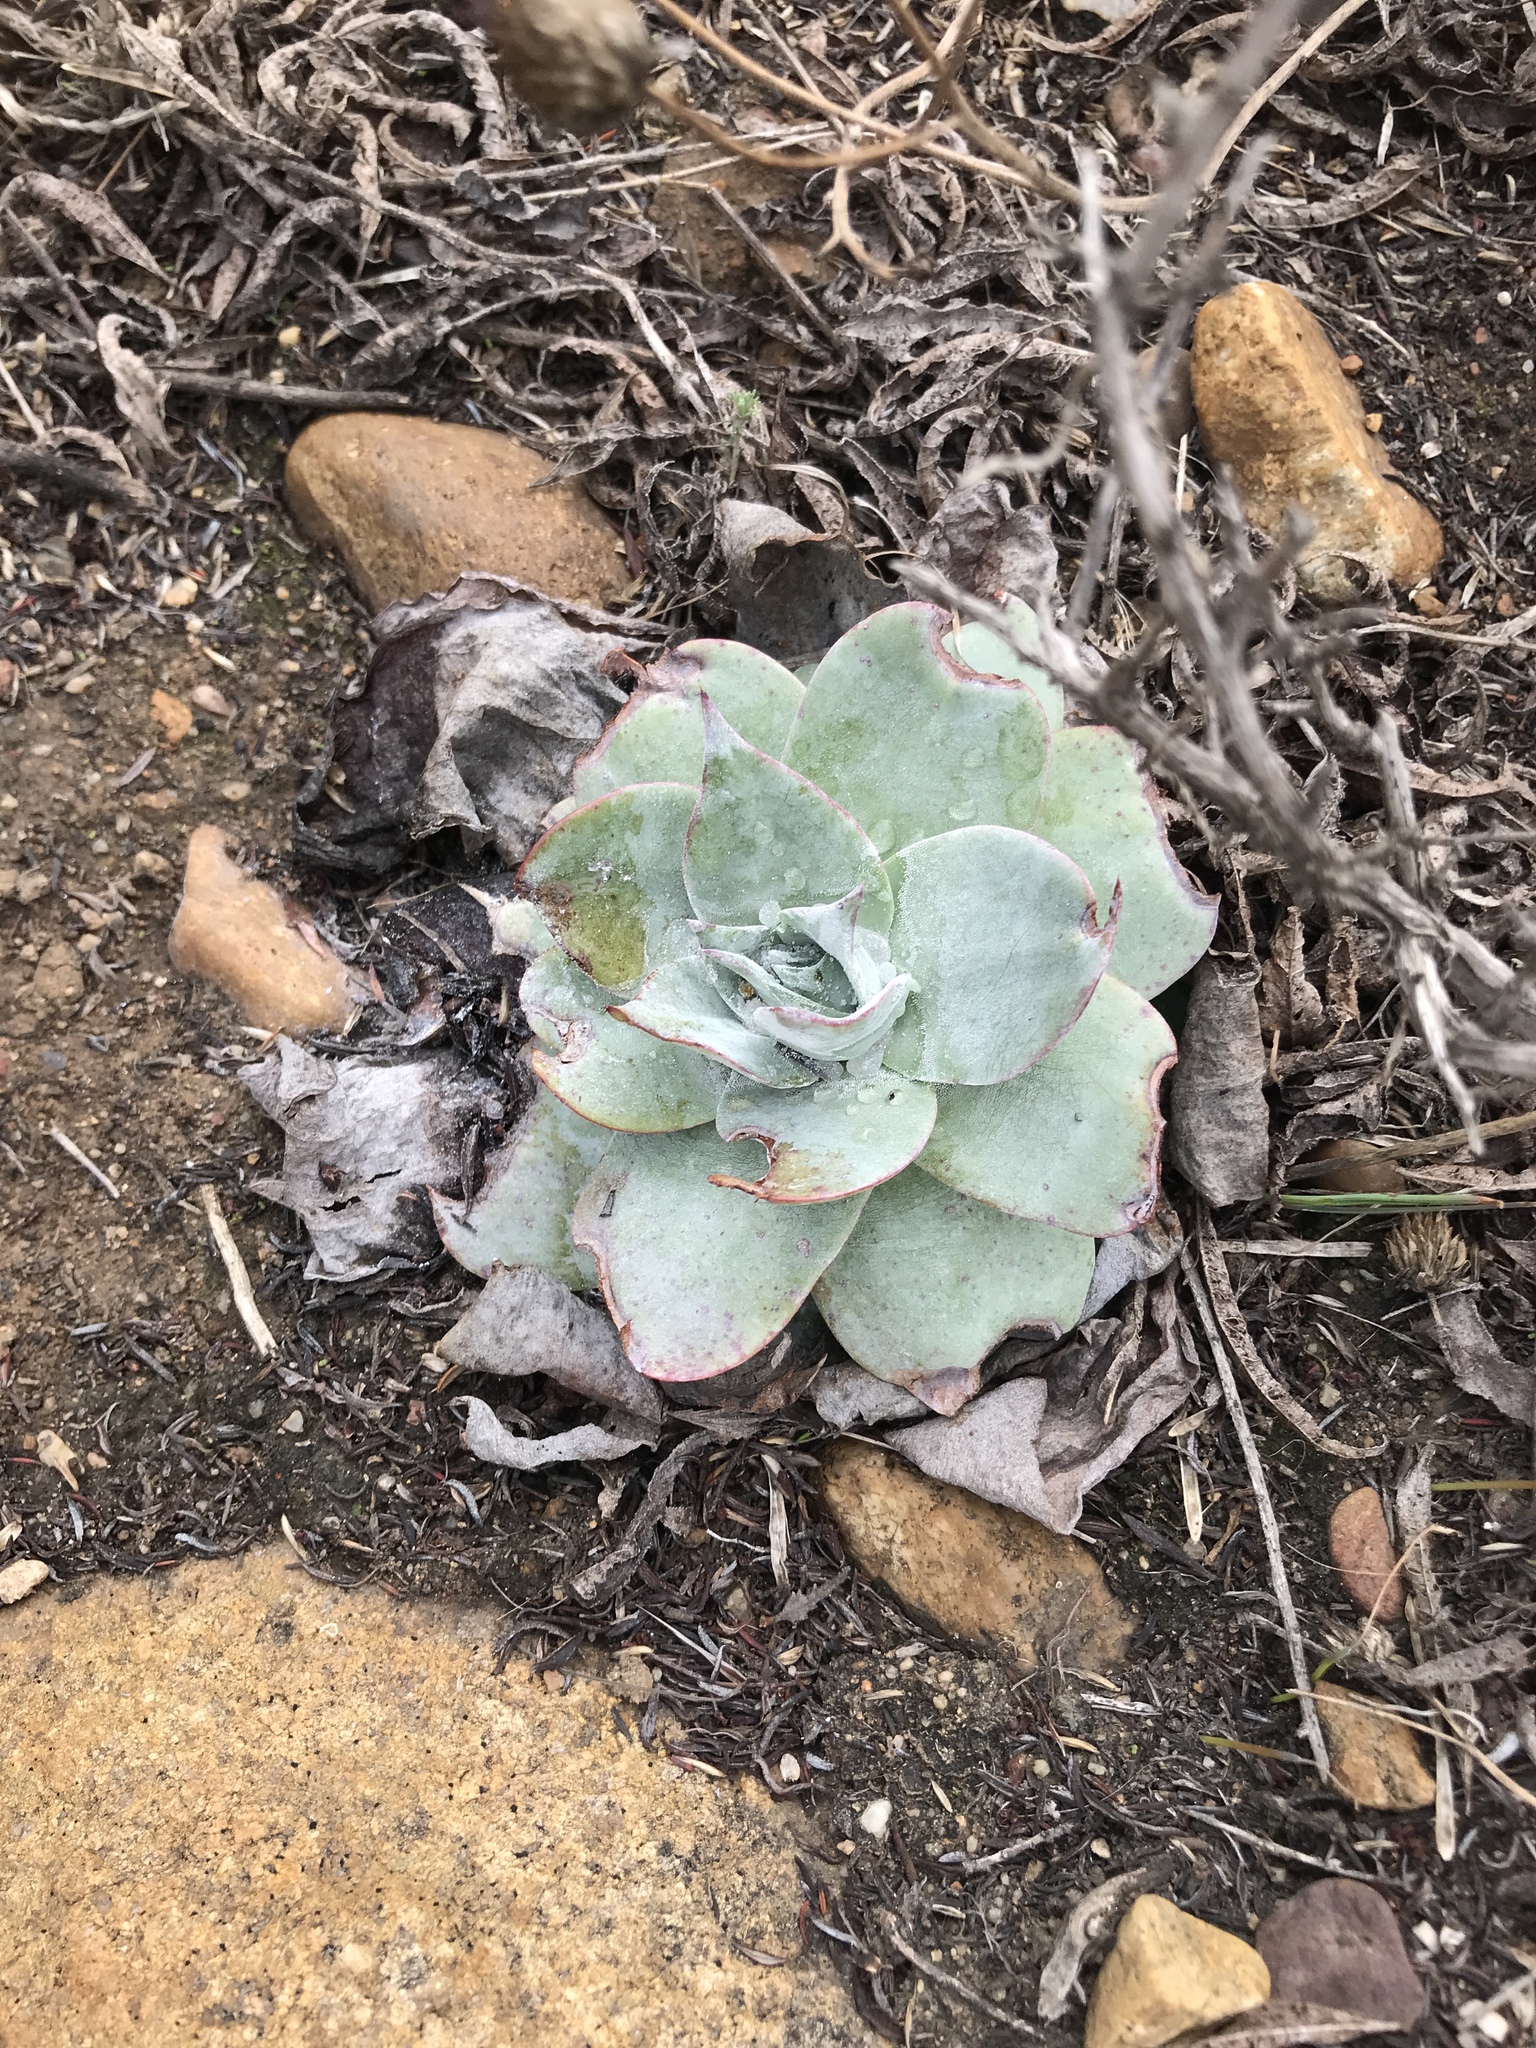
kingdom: Plantae
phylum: Tracheophyta
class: Magnoliopsida
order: Saxifragales
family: Crassulaceae
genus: Dudleya
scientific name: Dudleya pulverulenta
